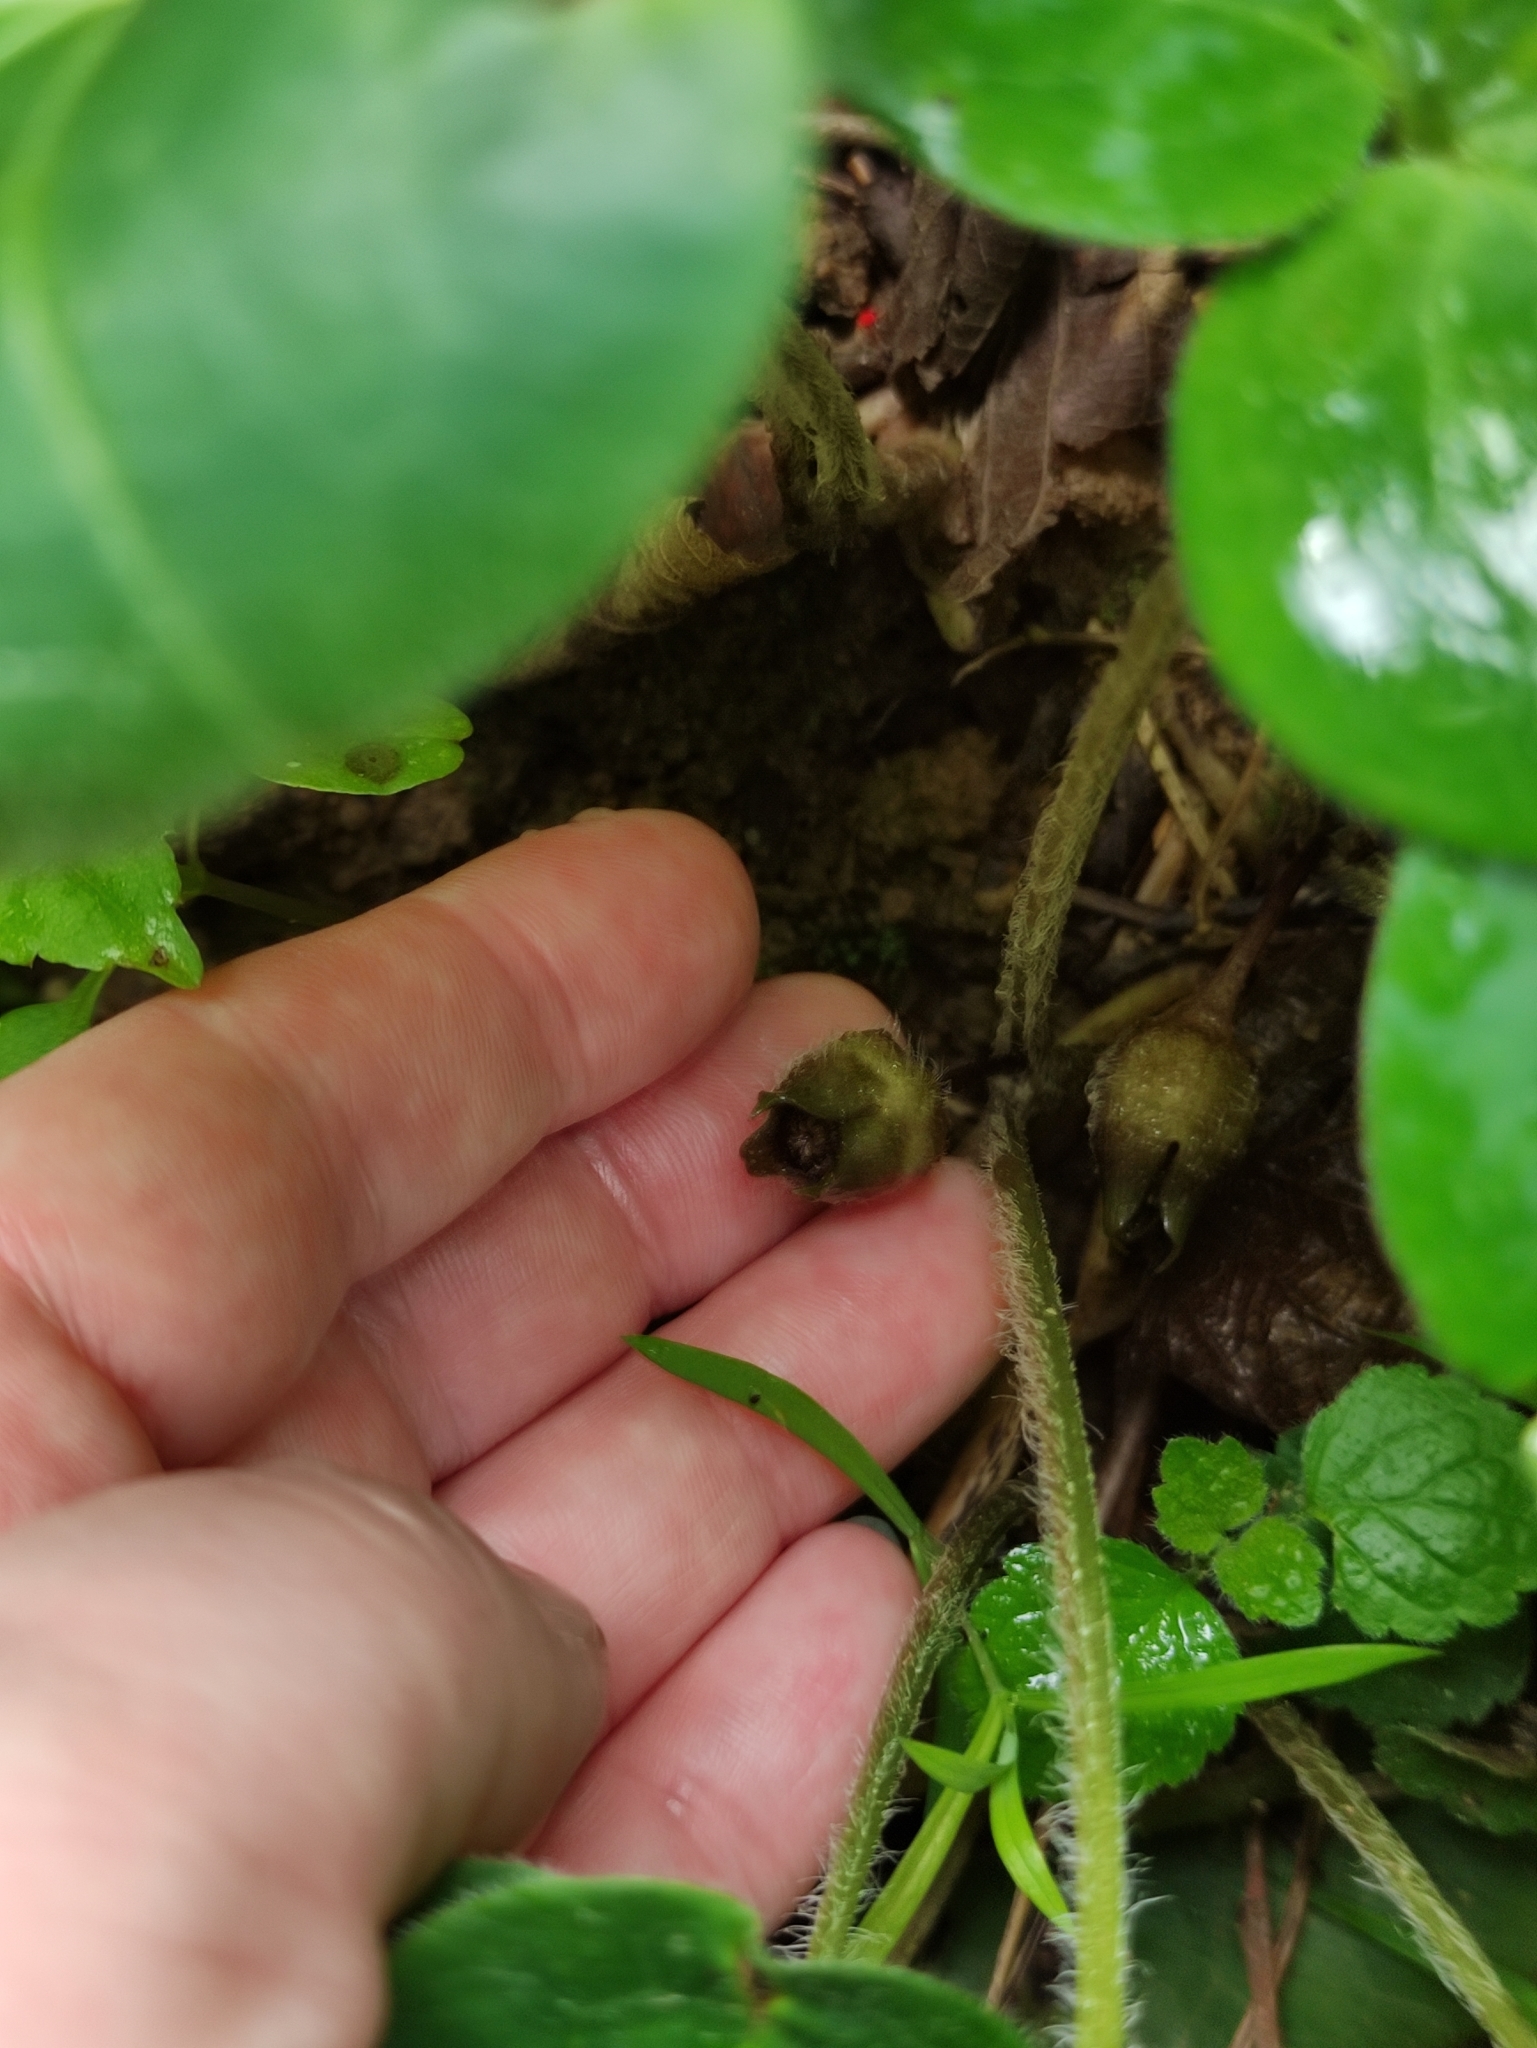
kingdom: Plantae
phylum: Tracheophyta
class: Magnoliopsida
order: Piperales
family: Aristolochiaceae
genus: Asarum
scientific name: Asarum europaeum
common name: Asarabacca
